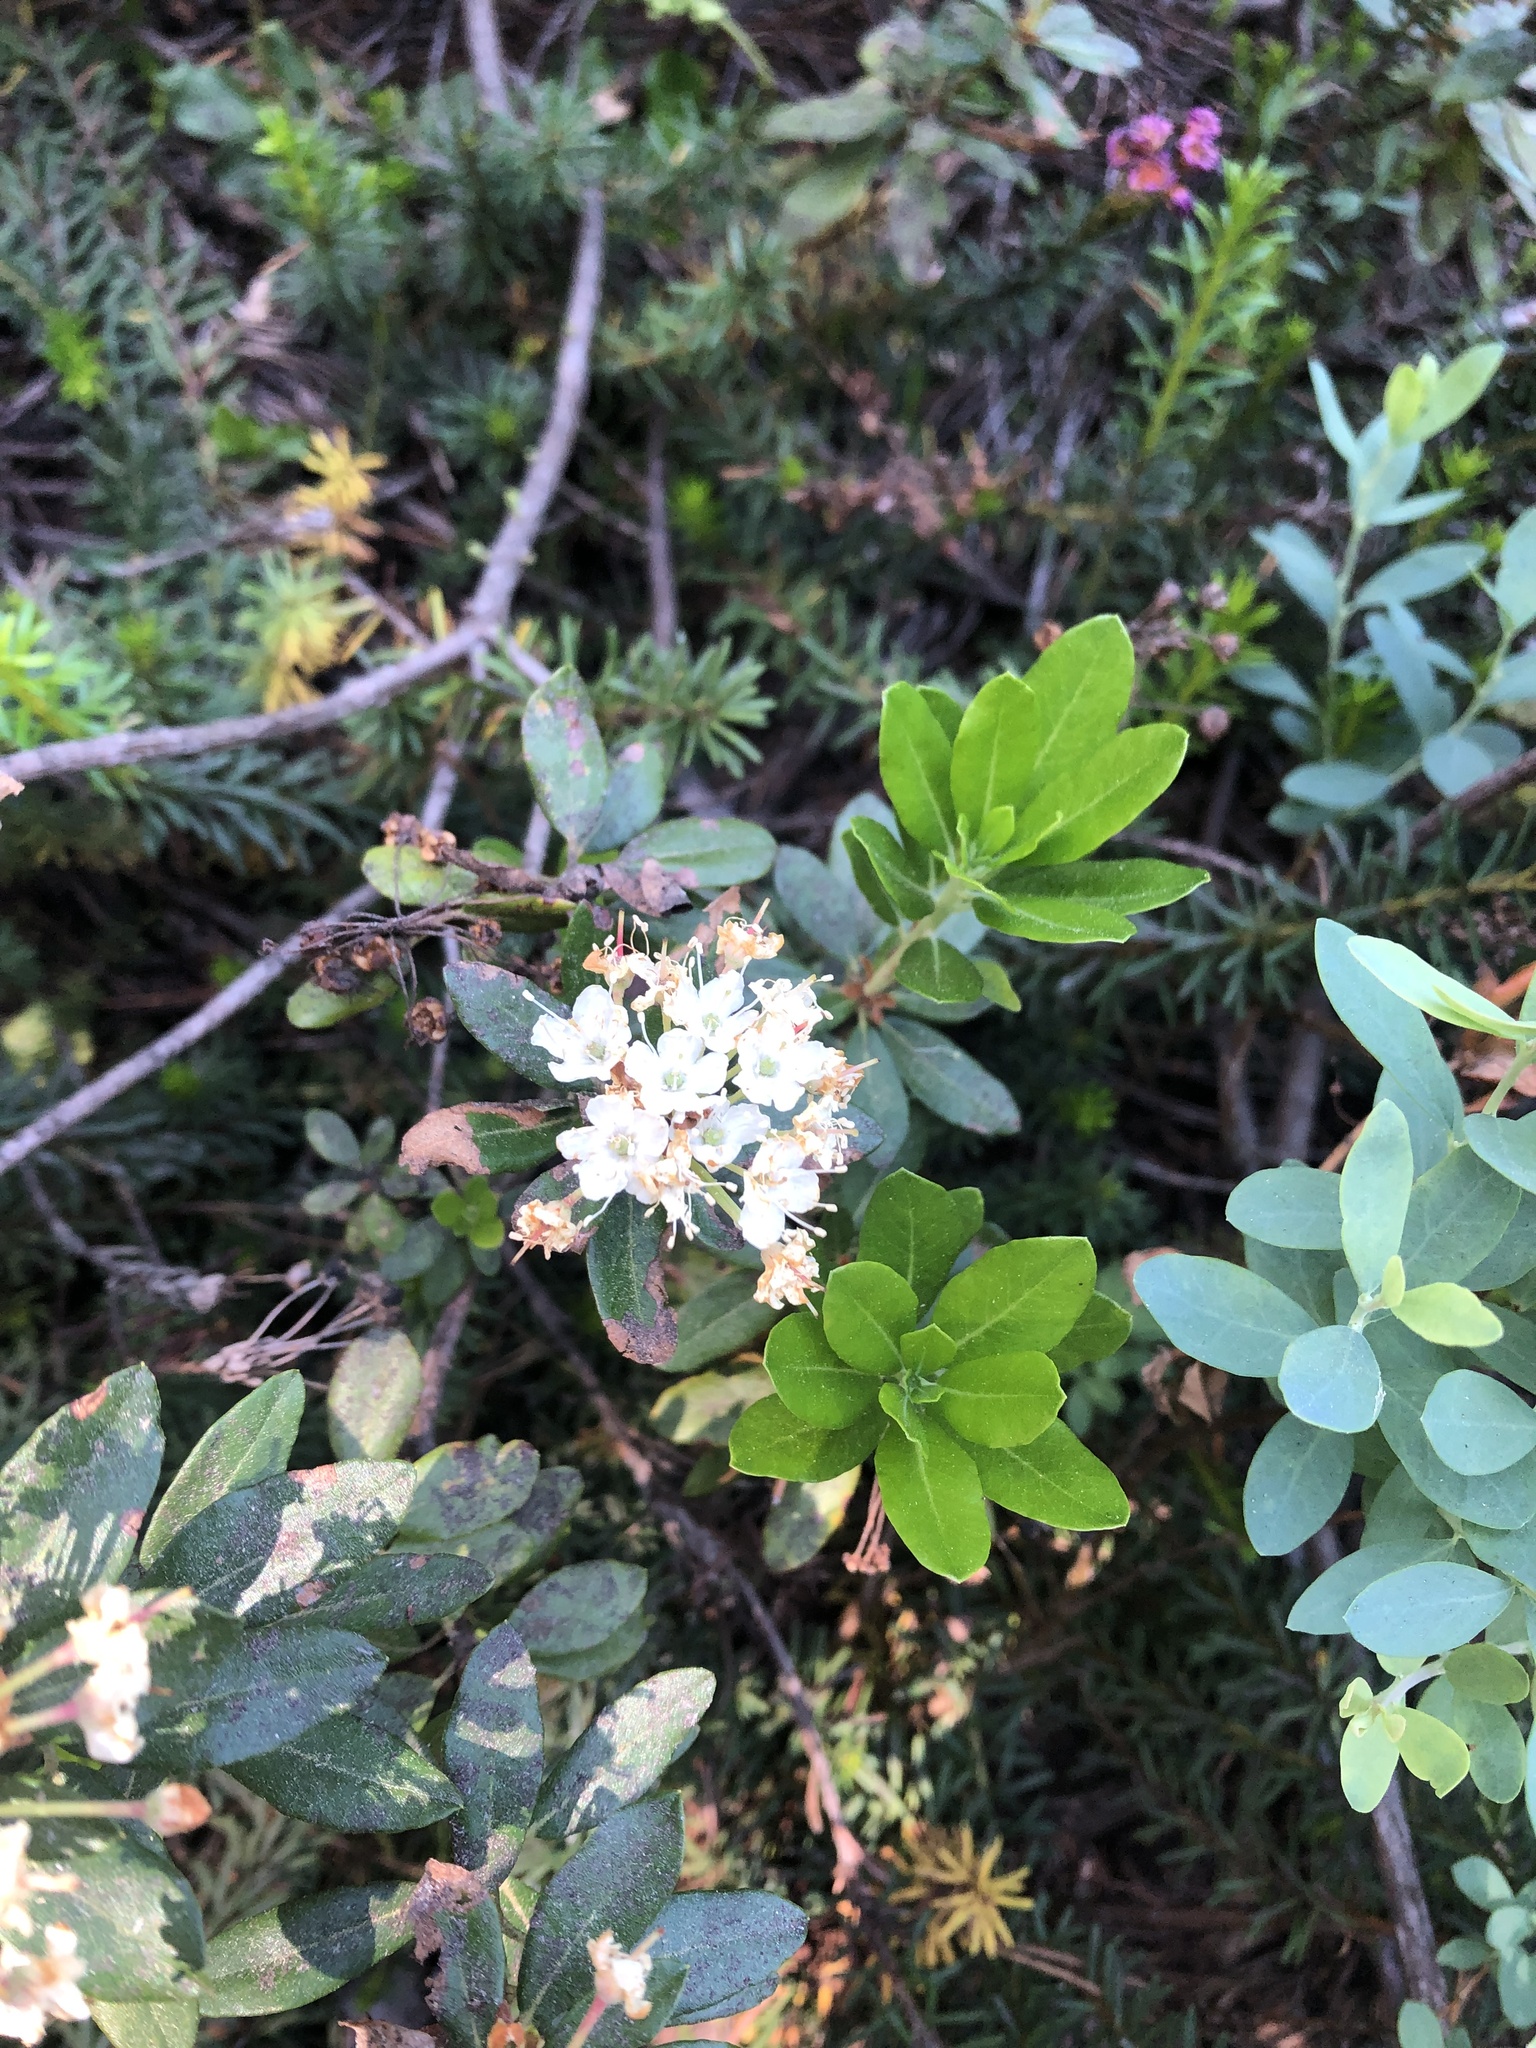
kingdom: Plantae
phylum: Tracheophyta
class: Magnoliopsida
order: Ericales
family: Ericaceae
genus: Rhododendron
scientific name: Rhododendron columbianum
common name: Western labrador tea
